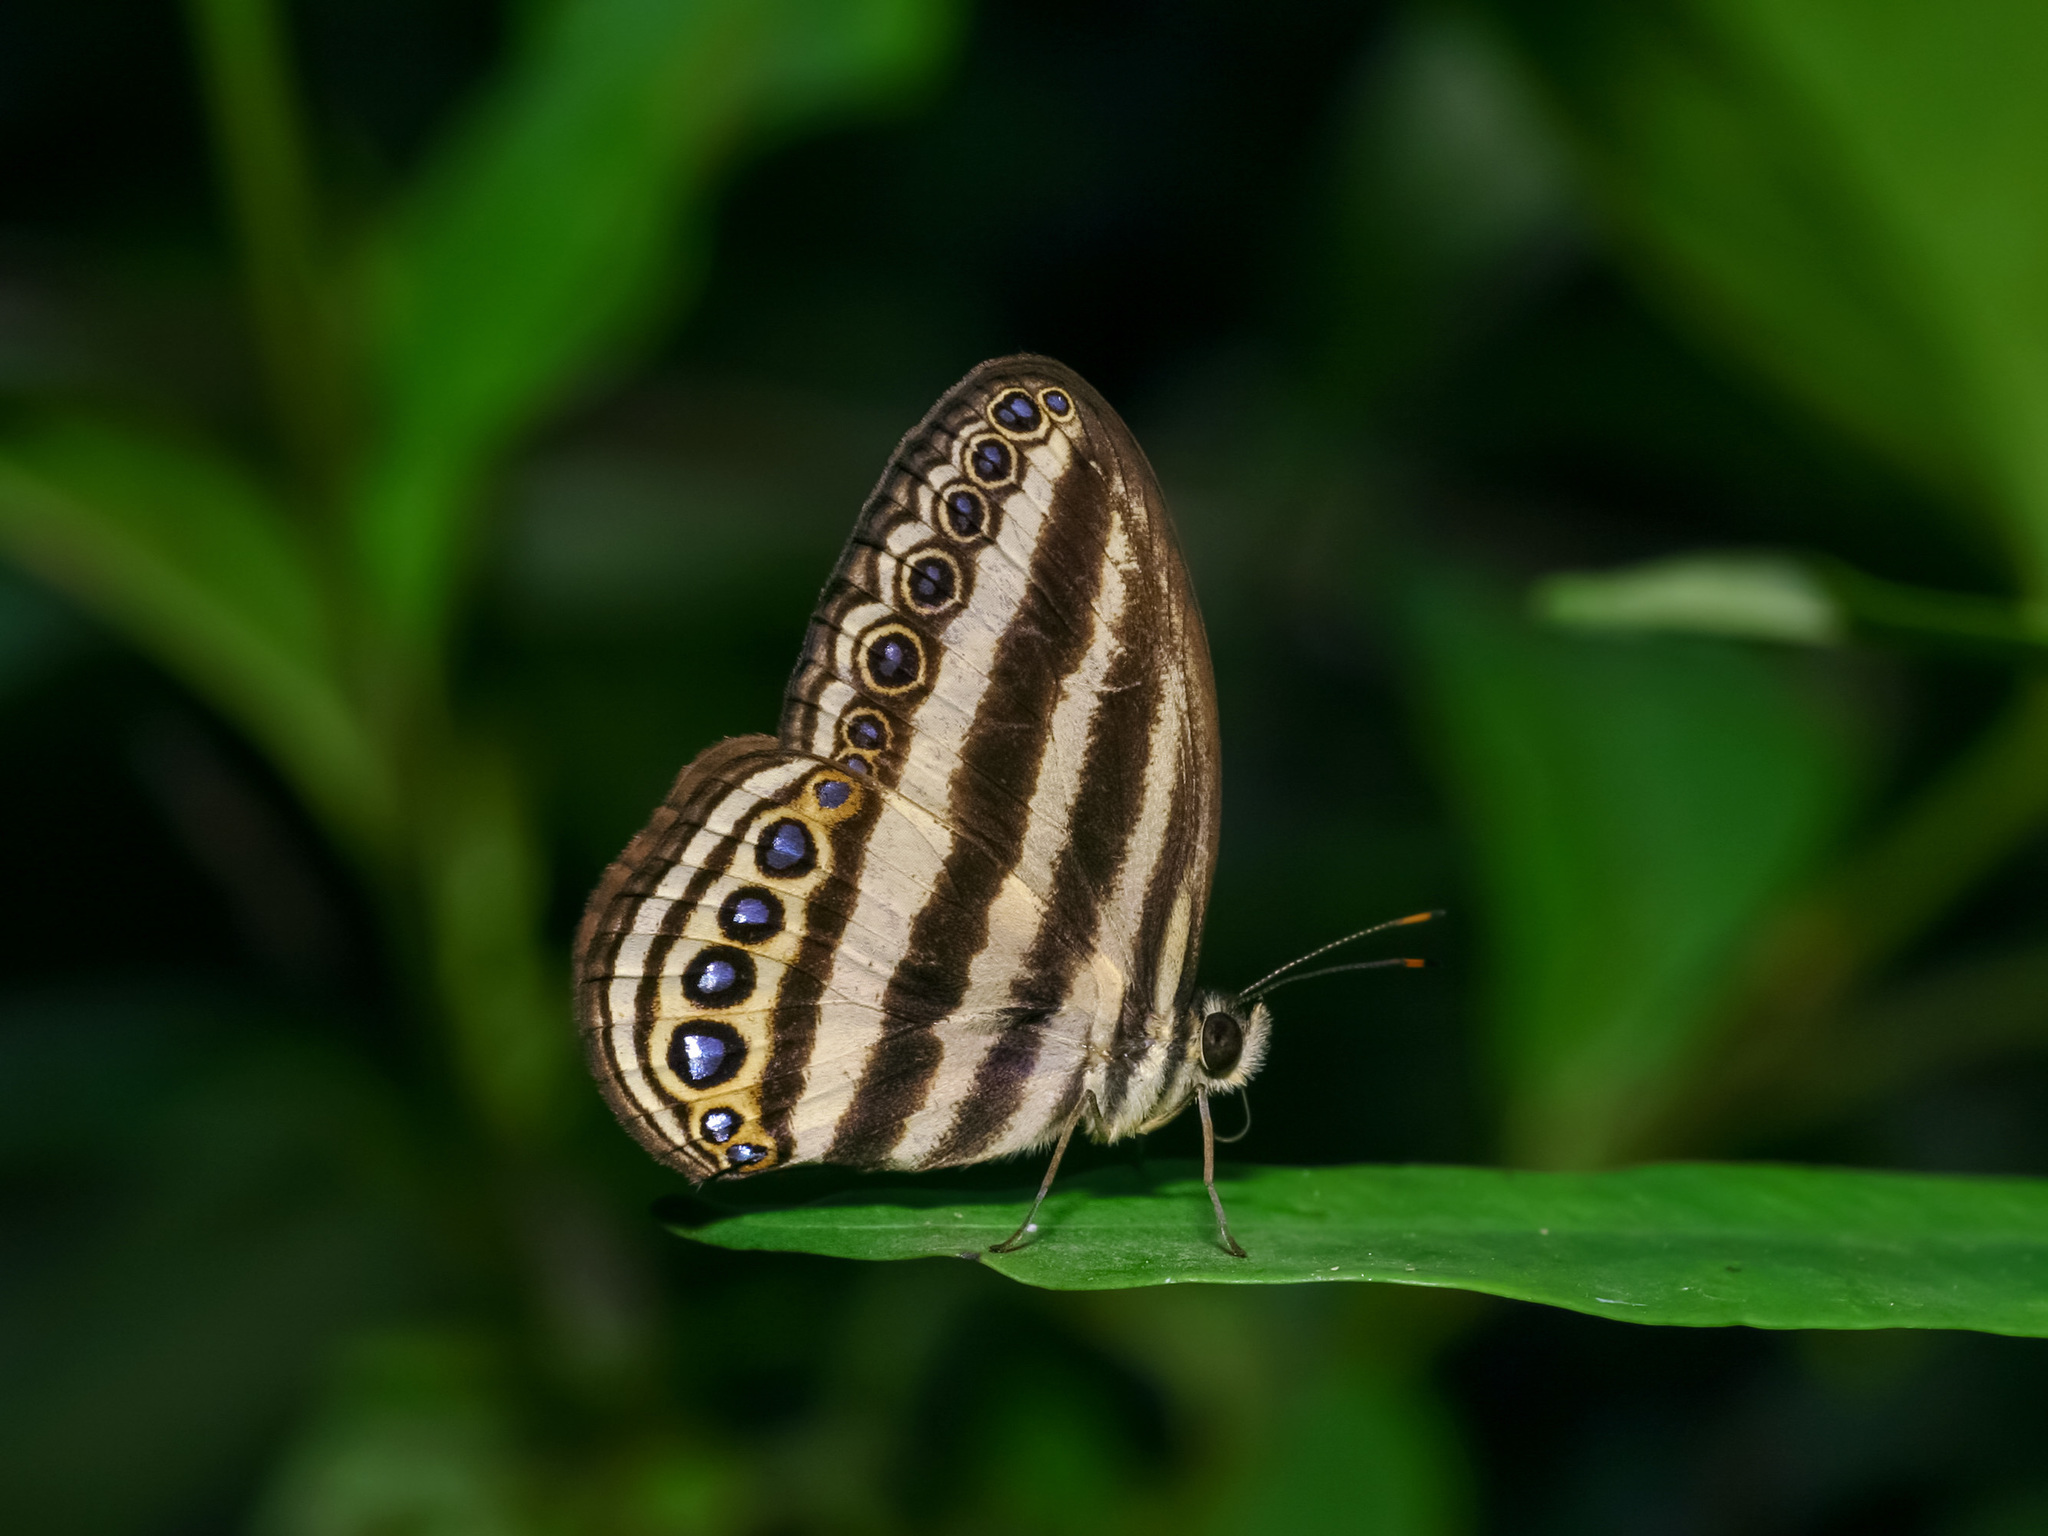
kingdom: Animalia
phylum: Arthropoda
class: Insecta
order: Lepidoptera
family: Nymphalidae
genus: Ragadia
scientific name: Ragadia makuta
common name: Striped ringlet
